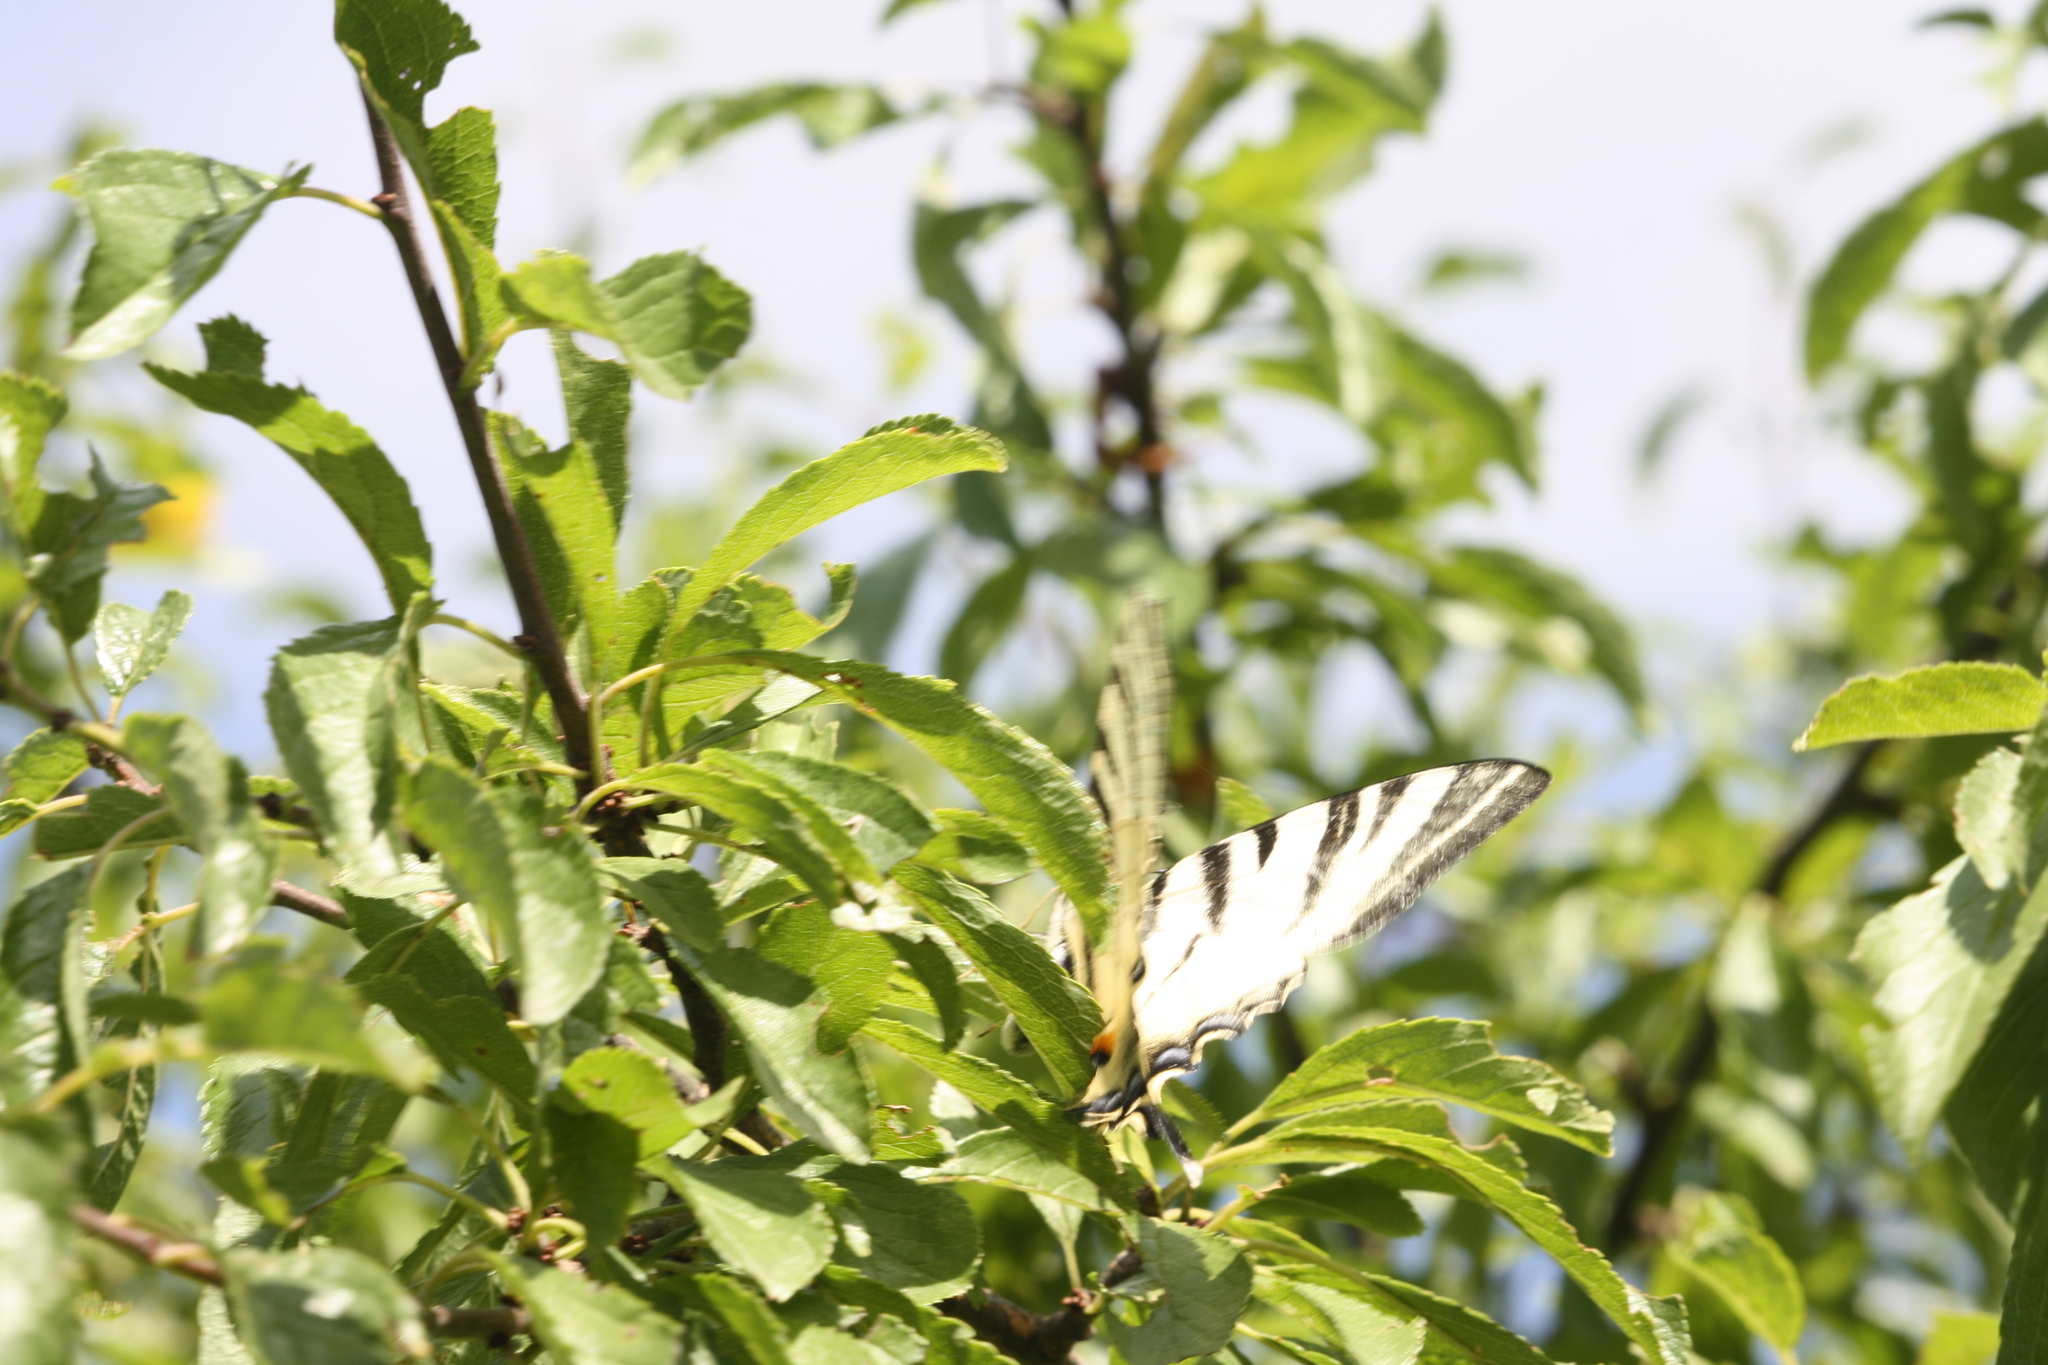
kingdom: Animalia
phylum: Arthropoda
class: Insecta
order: Lepidoptera
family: Papilionidae
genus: Iphiclides
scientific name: Iphiclides podalirius
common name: Scarce swallowtail
